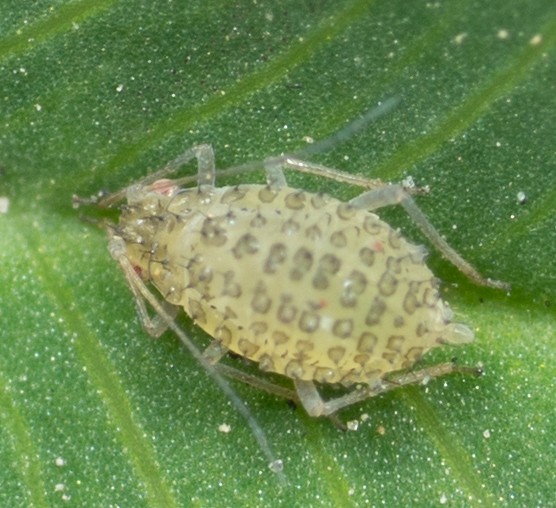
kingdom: Animalia
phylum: Arthropoda
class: Insecta
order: Hemiptera
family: Aphididae
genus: Therioaphis
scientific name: Therioaphis trifolii
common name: Spotted alfalfa aphid
